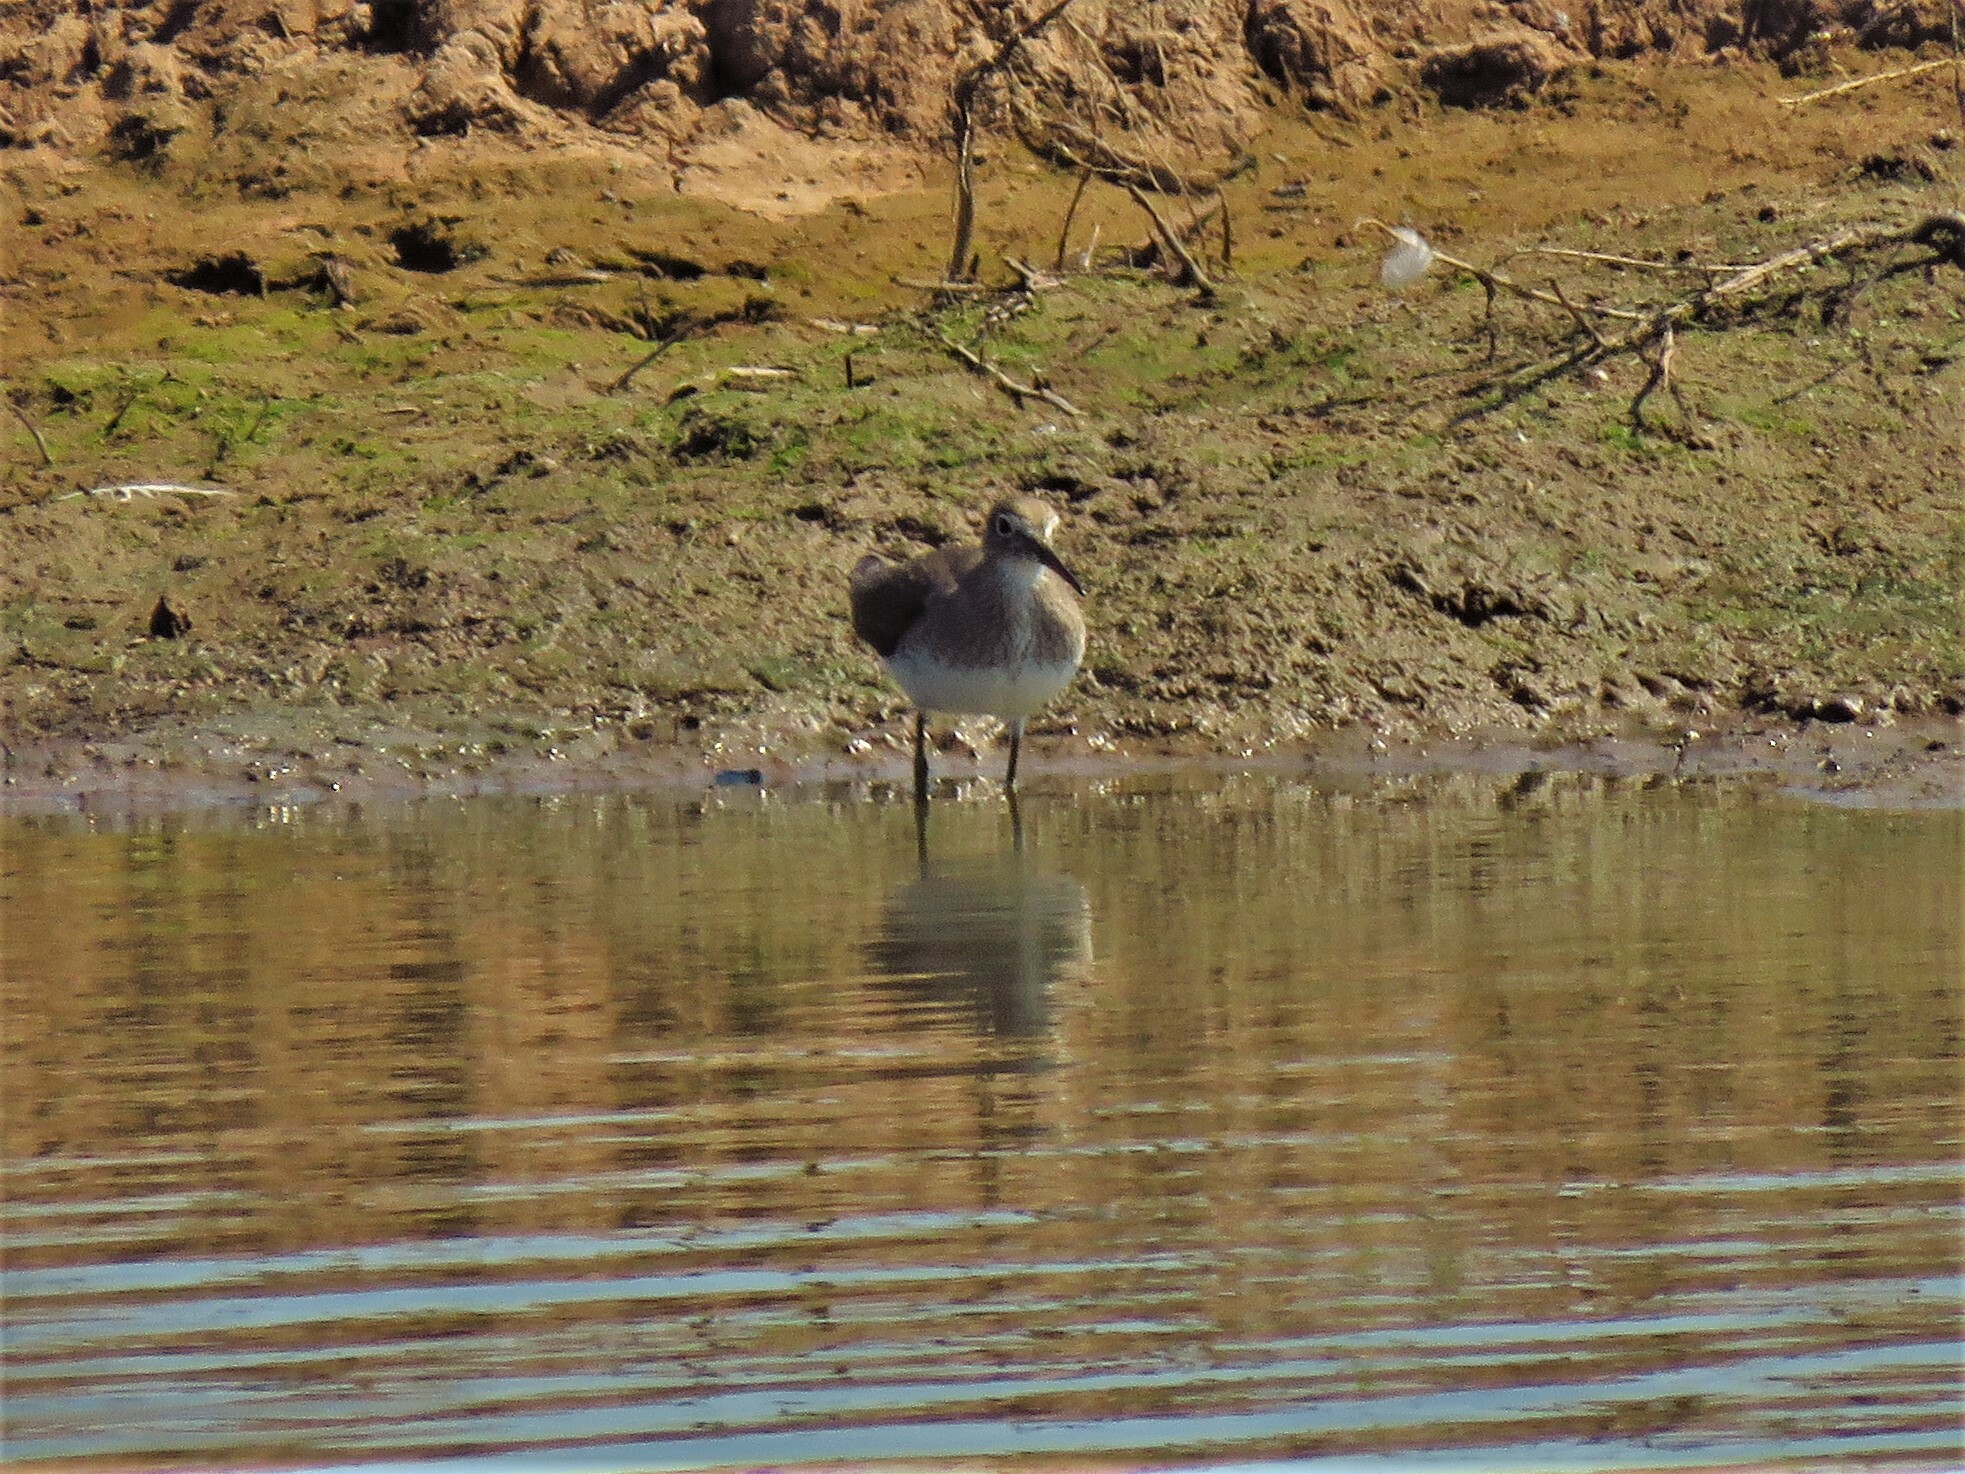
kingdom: Animalia
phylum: Chordata
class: Aves
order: Charadriiformes
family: Scolopacidae
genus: Tringa
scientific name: Tringa solitaria
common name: Solitary sandpiper
